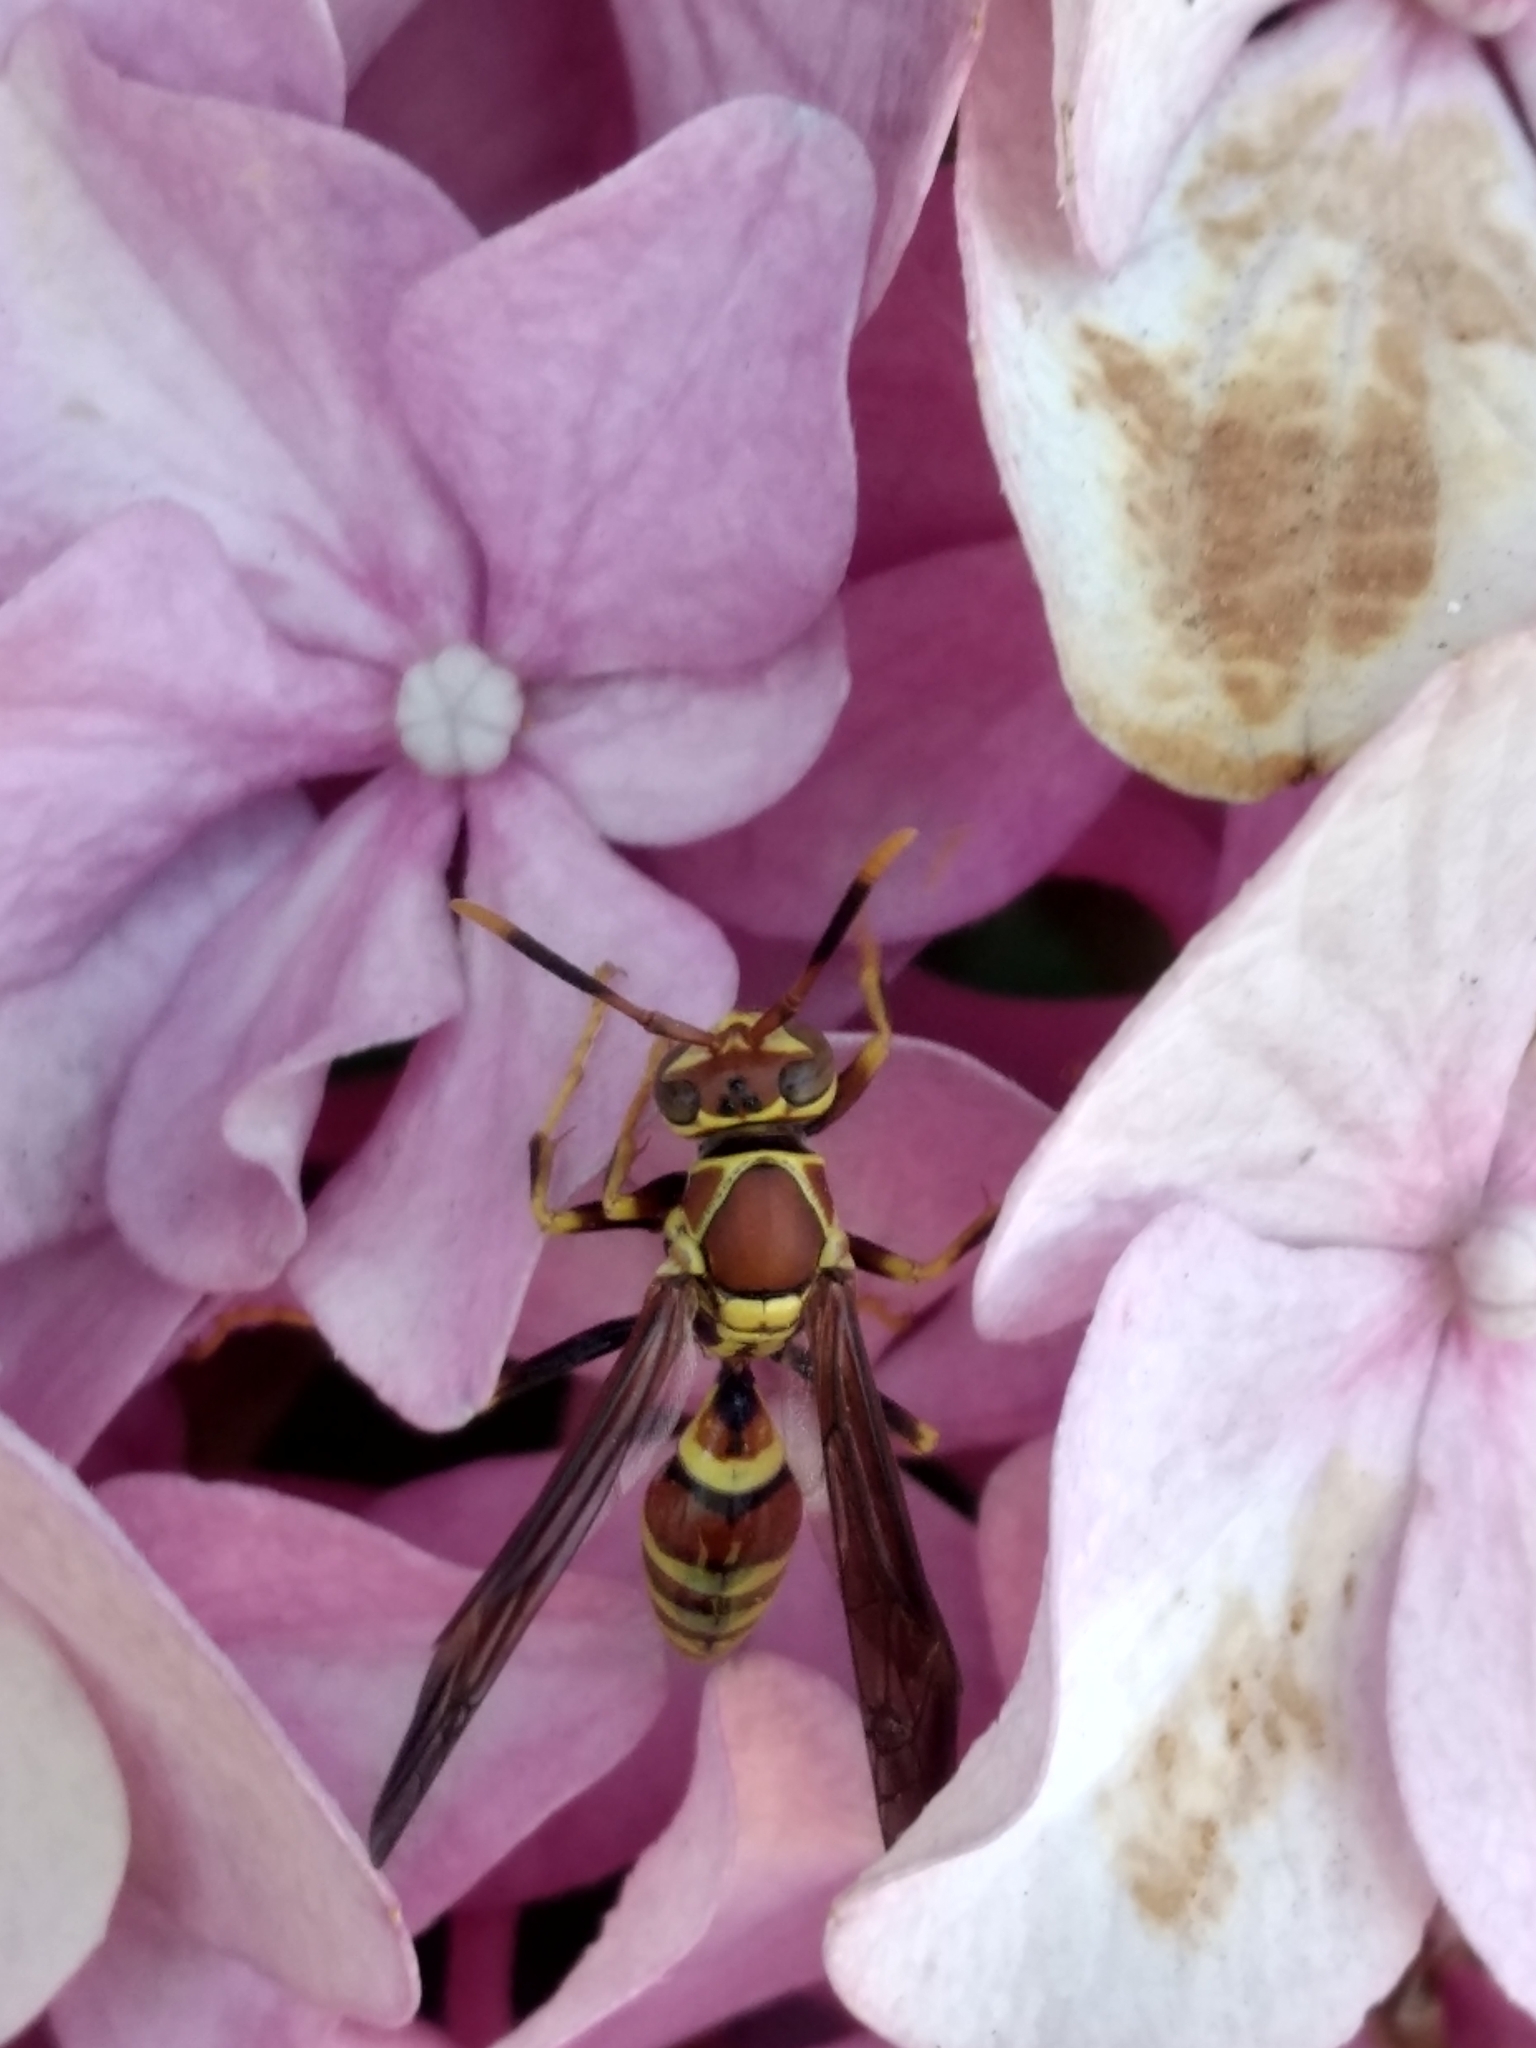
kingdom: Animalia
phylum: Arthropoda
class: Insecta
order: Hymenoptera
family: Eumenidae
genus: Polistes
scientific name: Polistes exclamans
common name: Paper wasp
